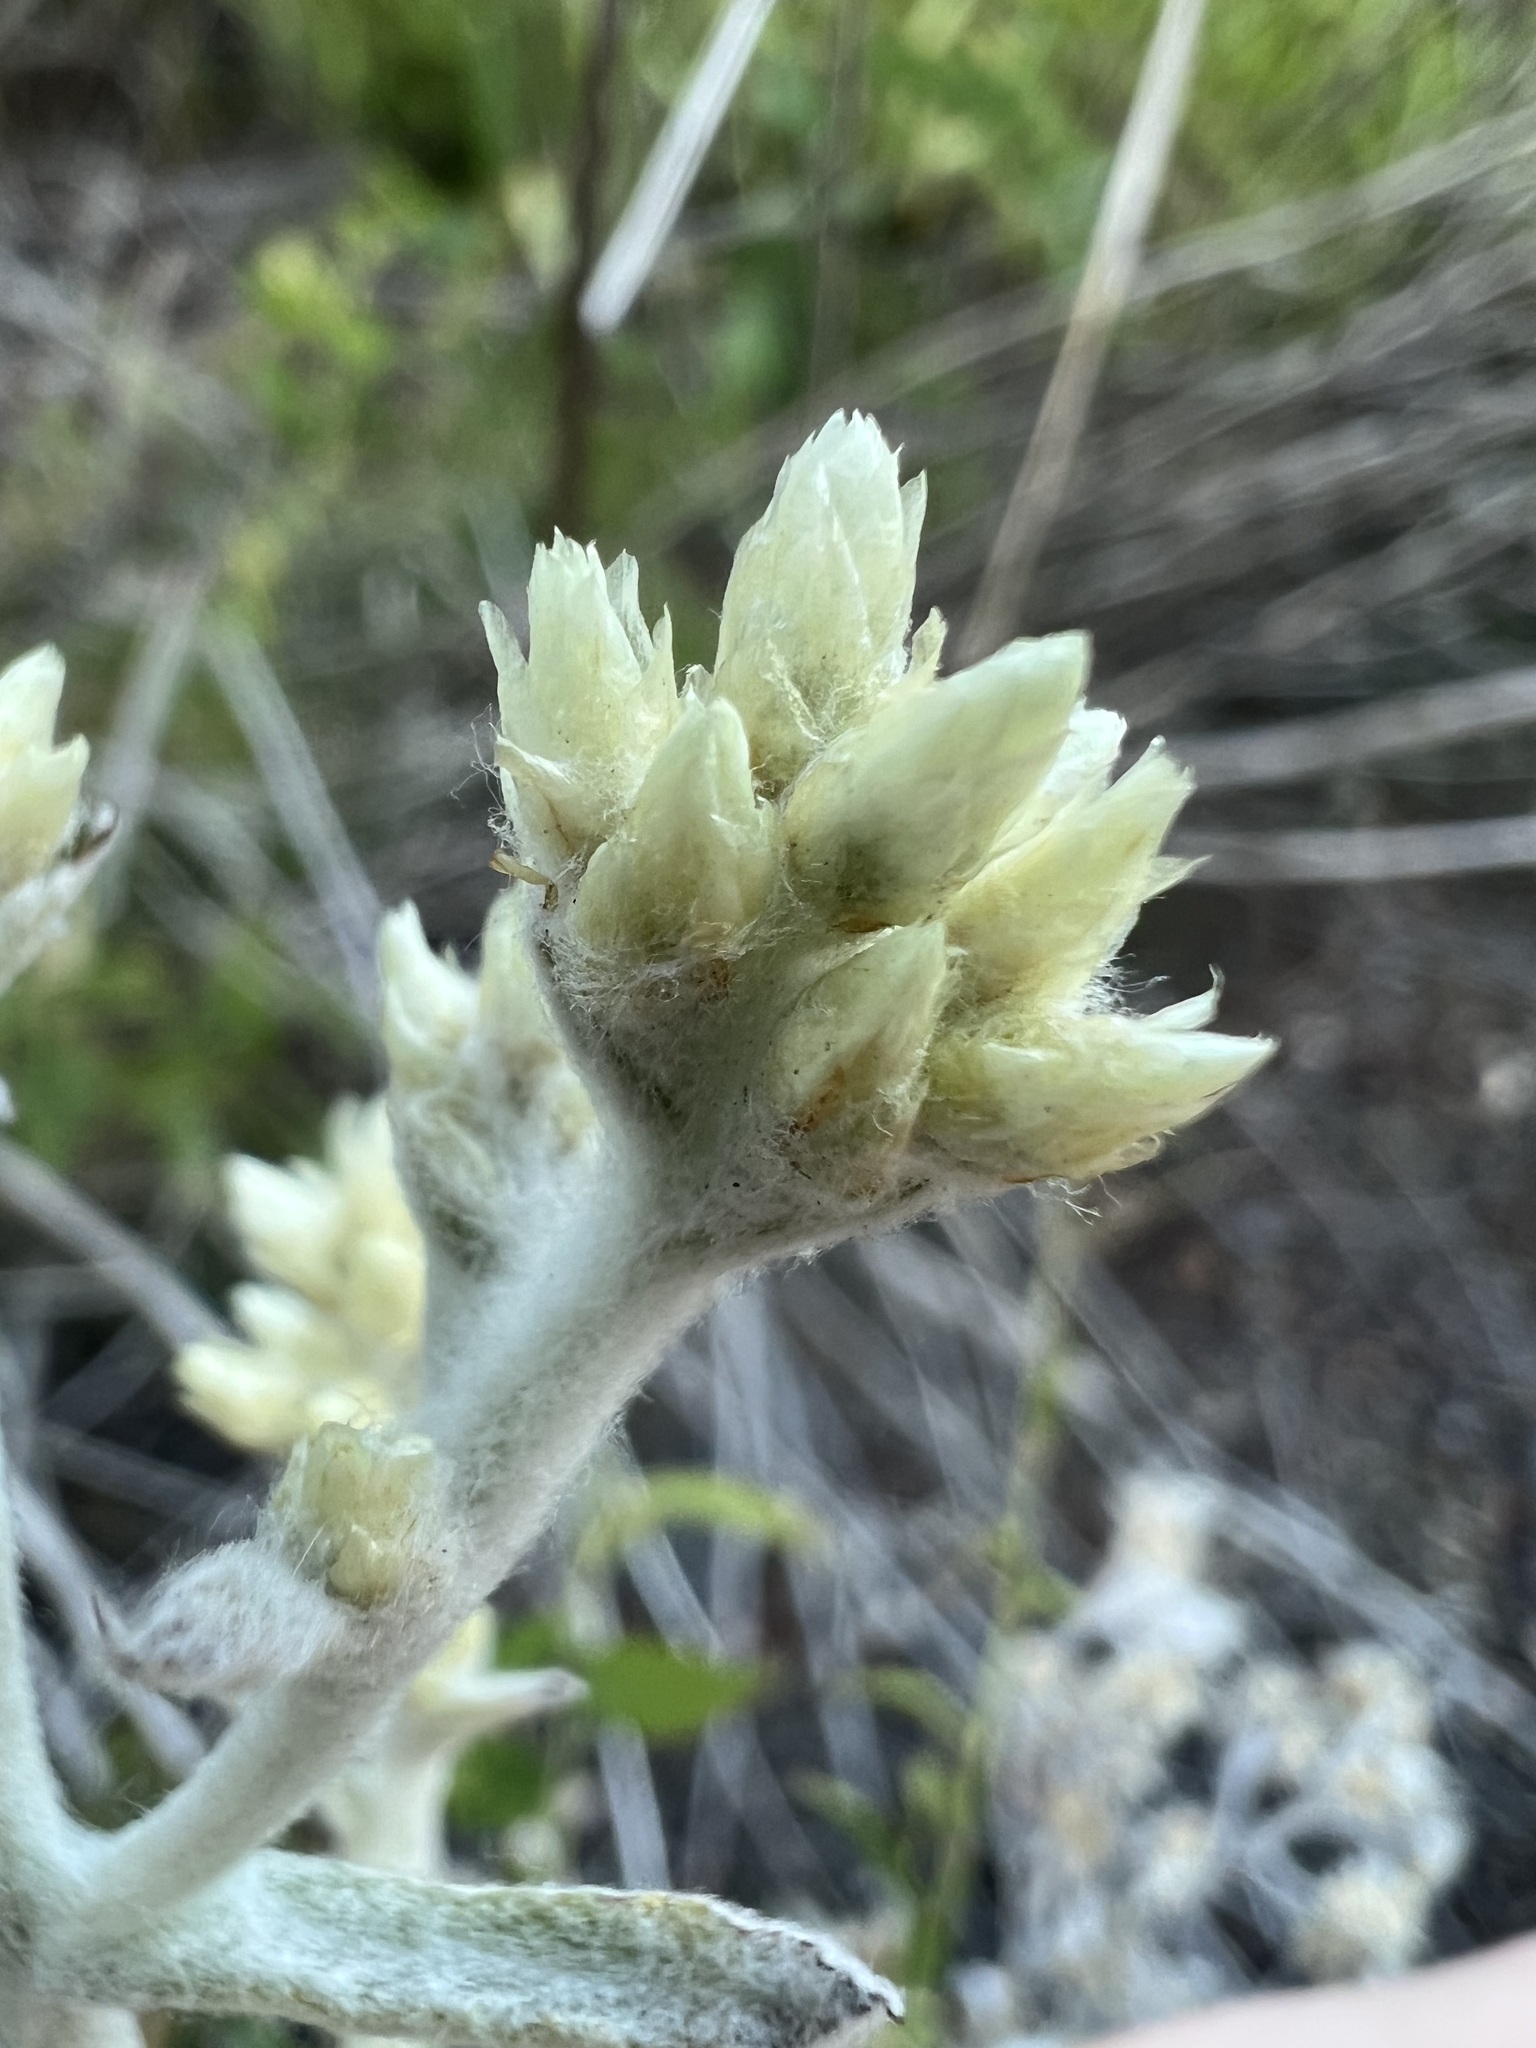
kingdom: Plantae
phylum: Tracheophyta
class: Magnoliopsida
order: Asterales
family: Asteraceae
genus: Pseudognaphalium
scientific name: Pseudognaphalium microcephalum
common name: San diego rabbit-tobacco
